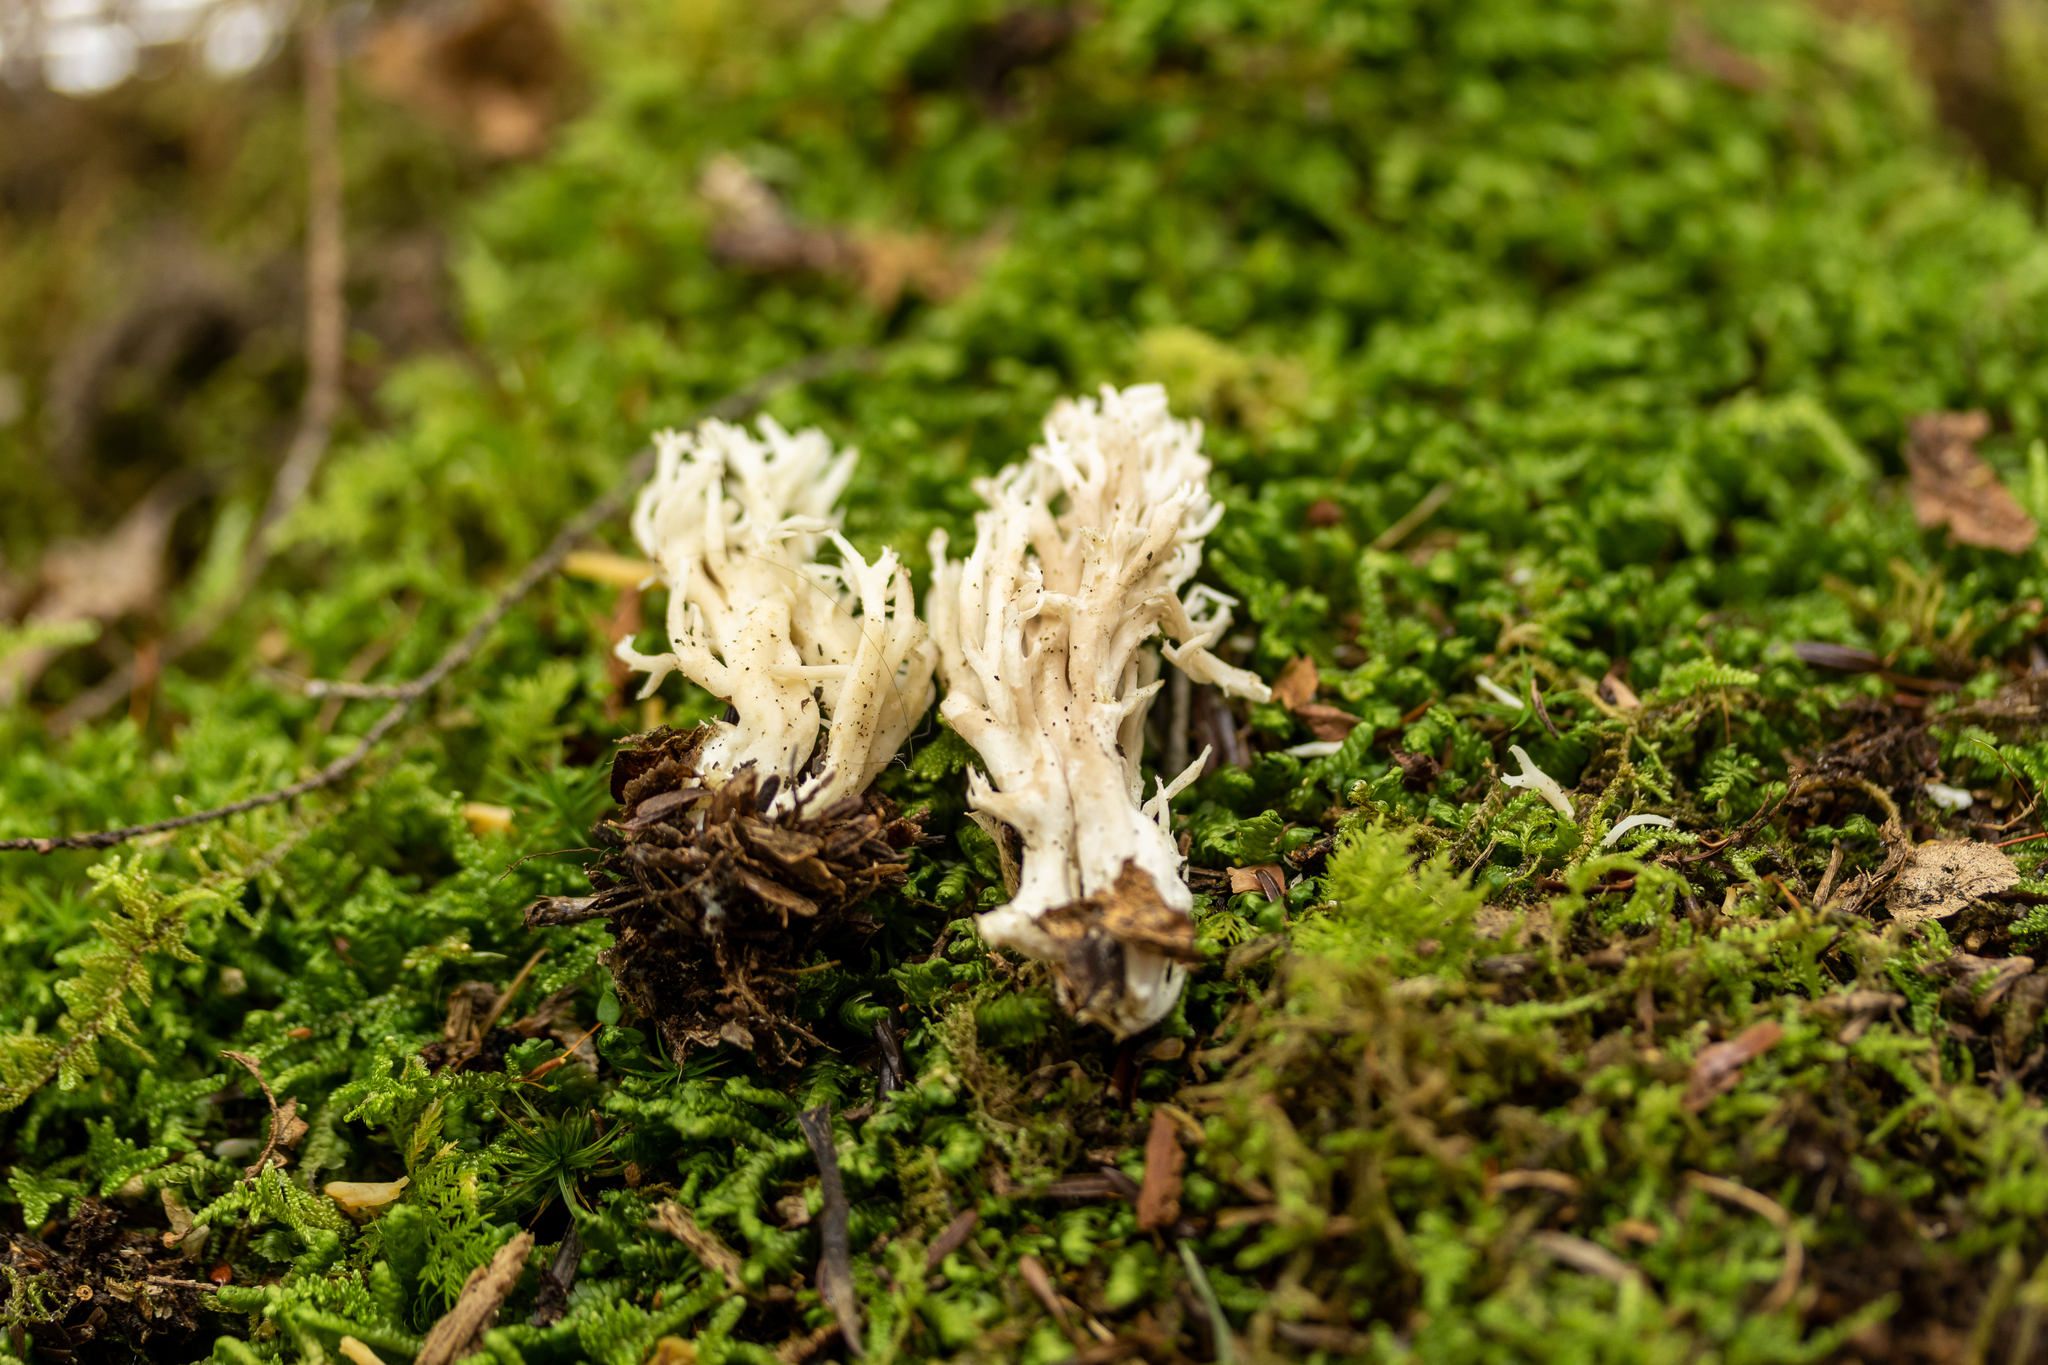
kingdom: Fungi
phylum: Basidiomycota
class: Agaricomycetes
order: Cantharellales
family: Hydnaceae
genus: Clavulina
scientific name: Clavulina coralloides
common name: Crested coral
